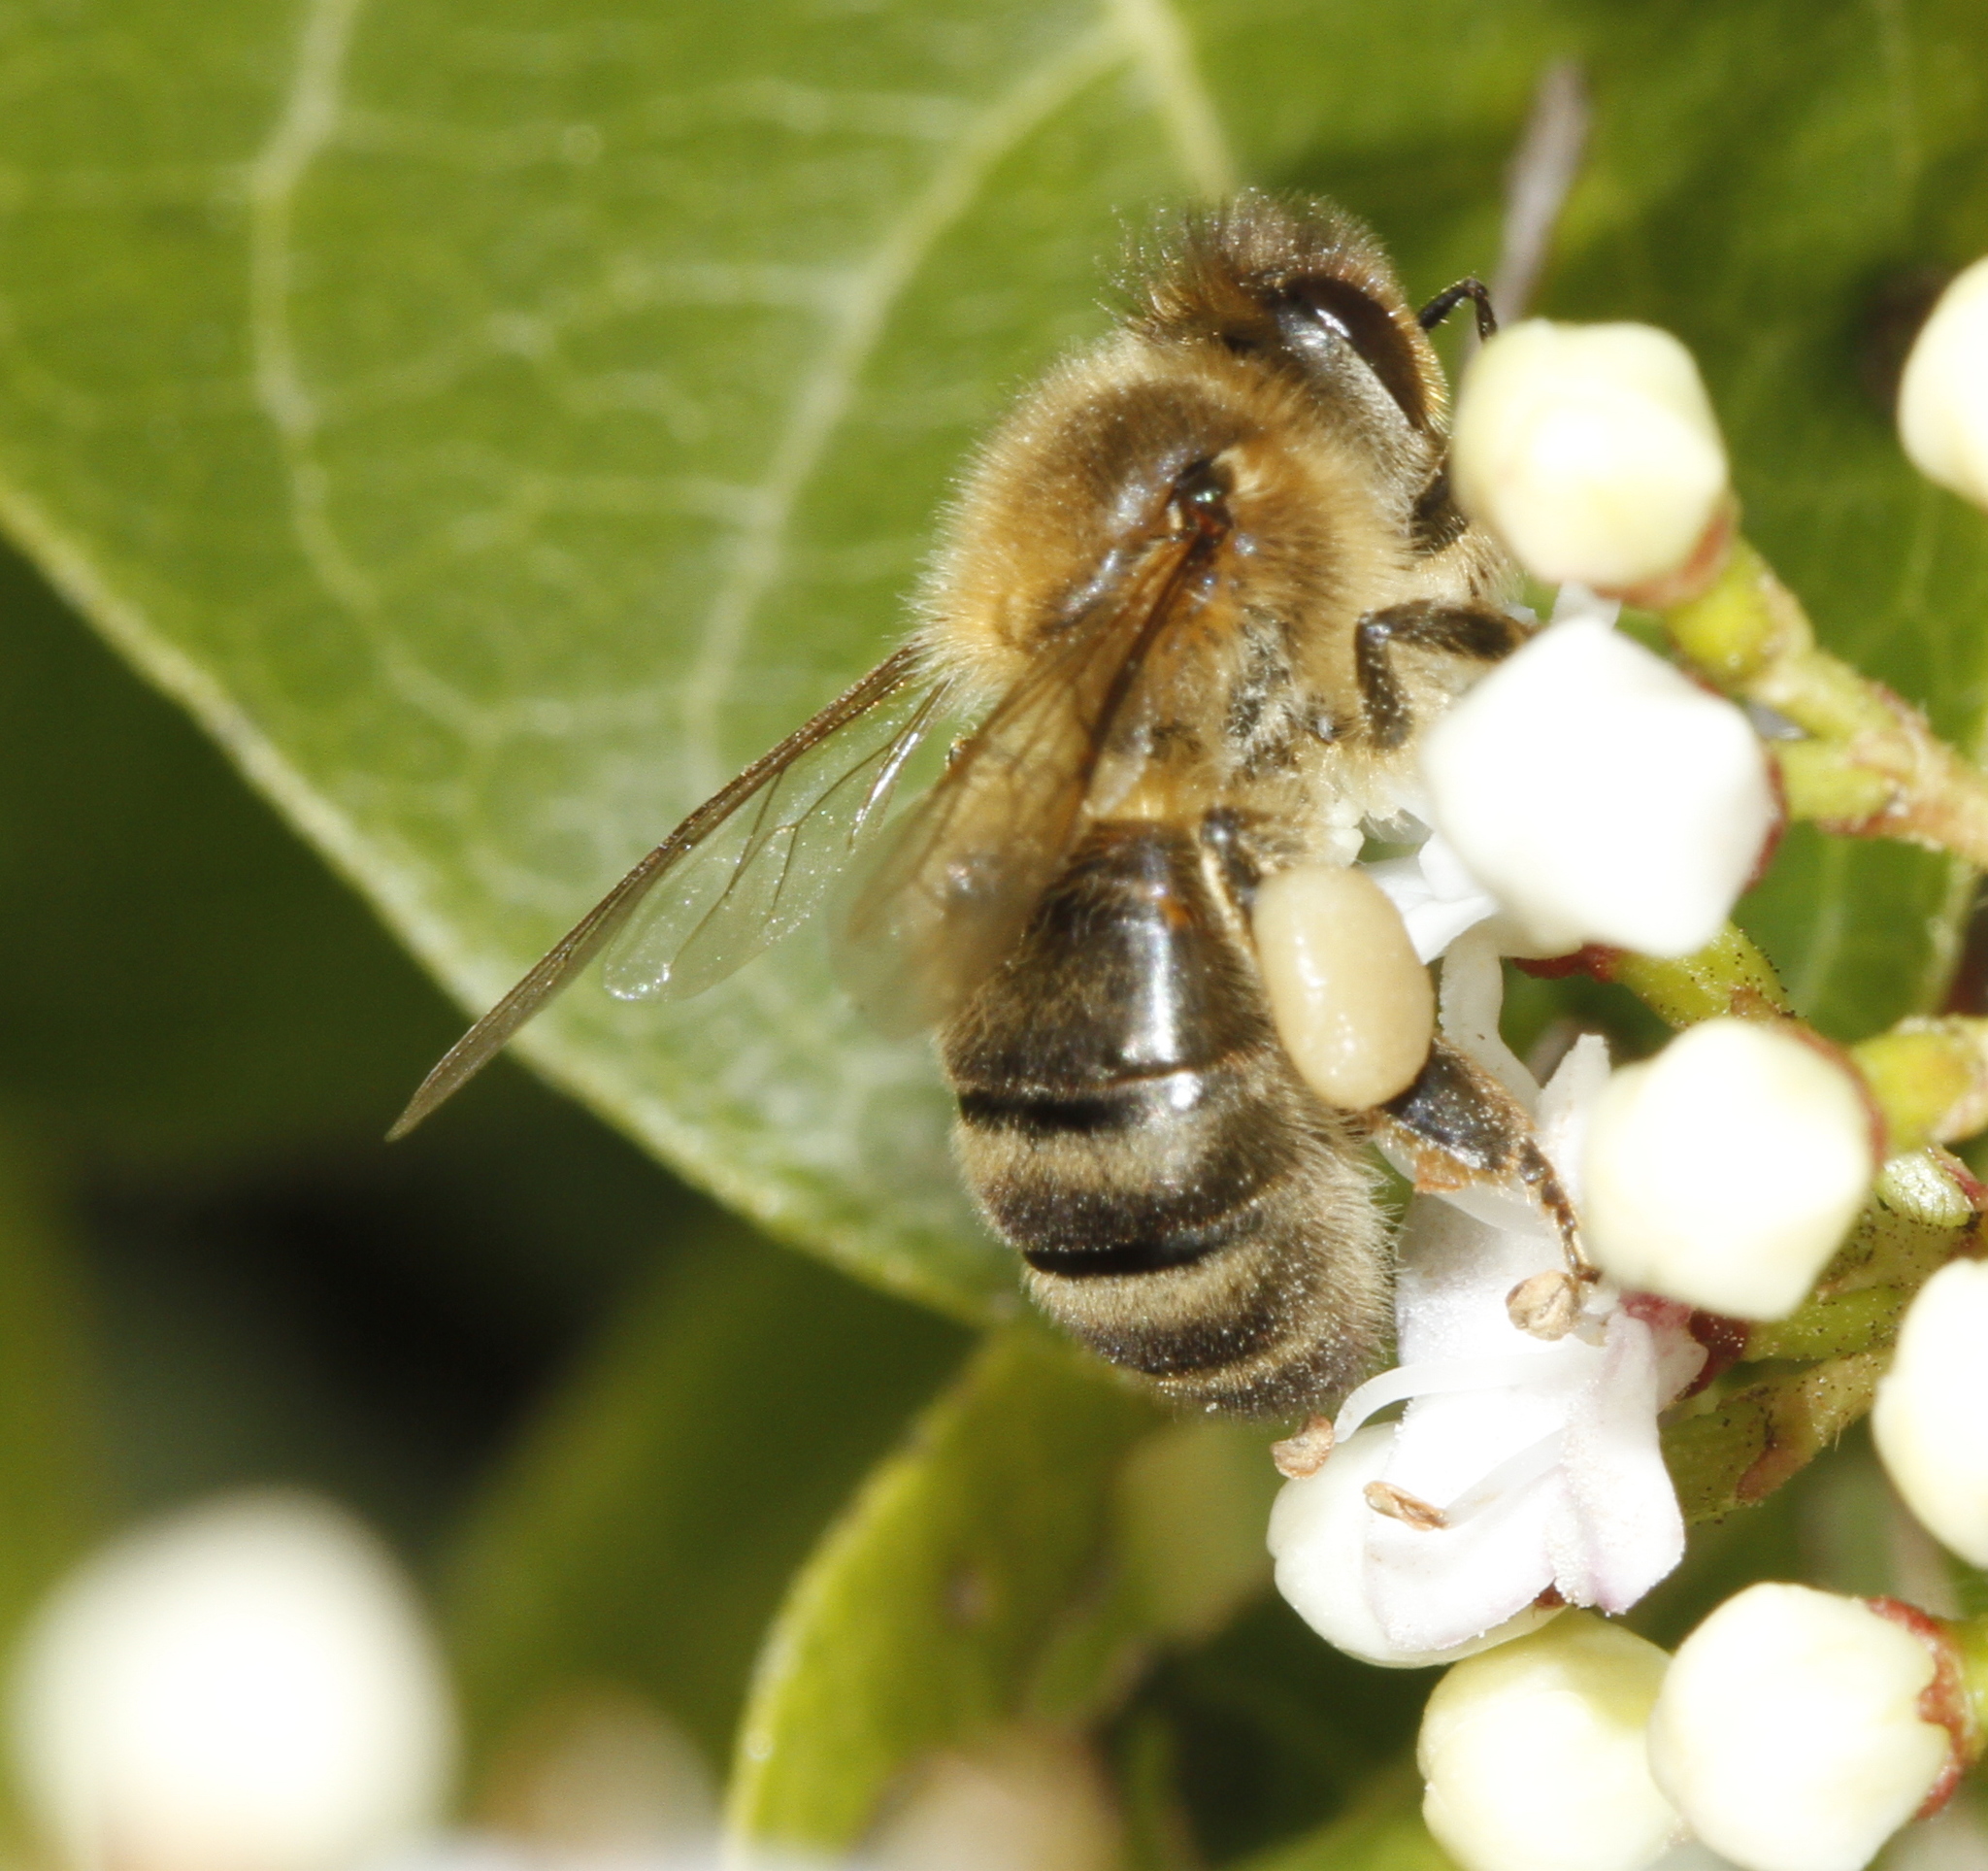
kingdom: Animalia
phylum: Arthropoda
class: Insecta
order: Hymenoptera
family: Apidae
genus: Apis
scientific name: Apis mellifera
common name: Honey bee
